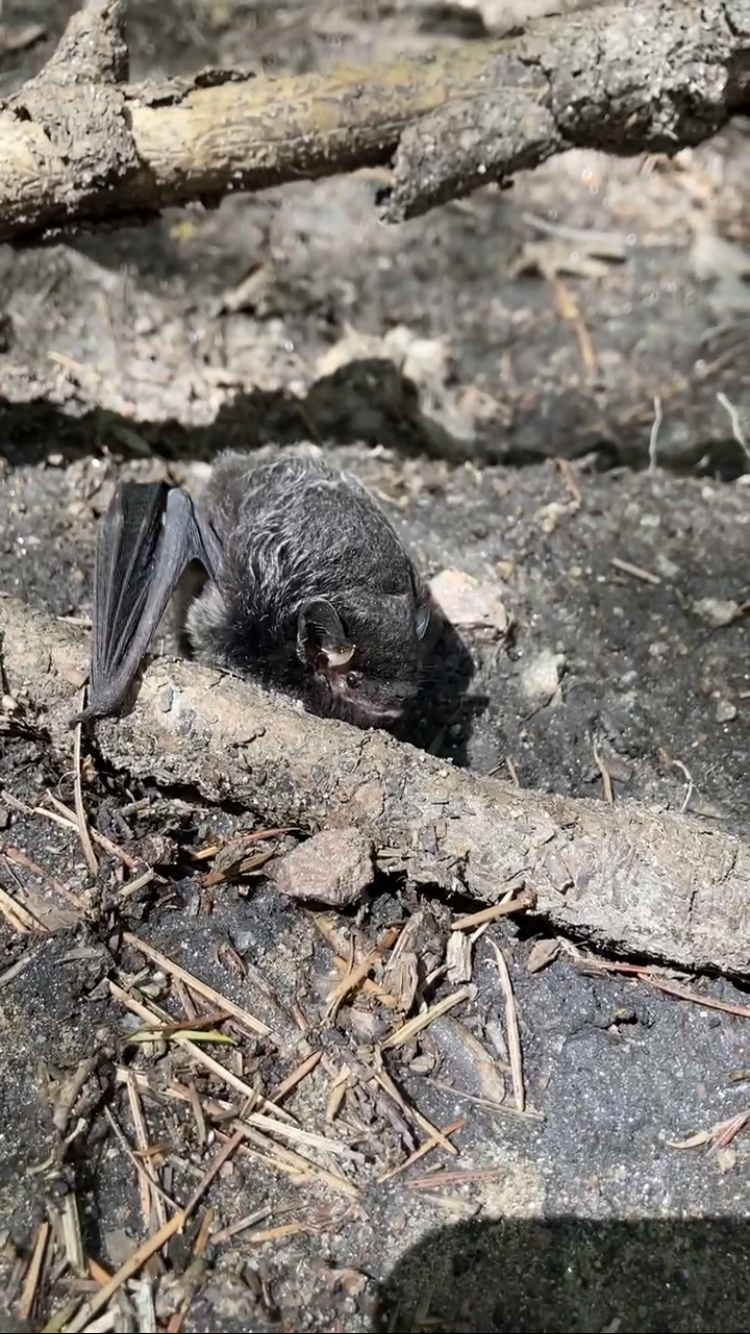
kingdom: Animalia
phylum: Chordata
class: Mammalia
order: Chiroptera
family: Vespertilionidae
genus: Lasionycteris
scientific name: Lasionycteris noctivagans
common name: Silver-haired bat
